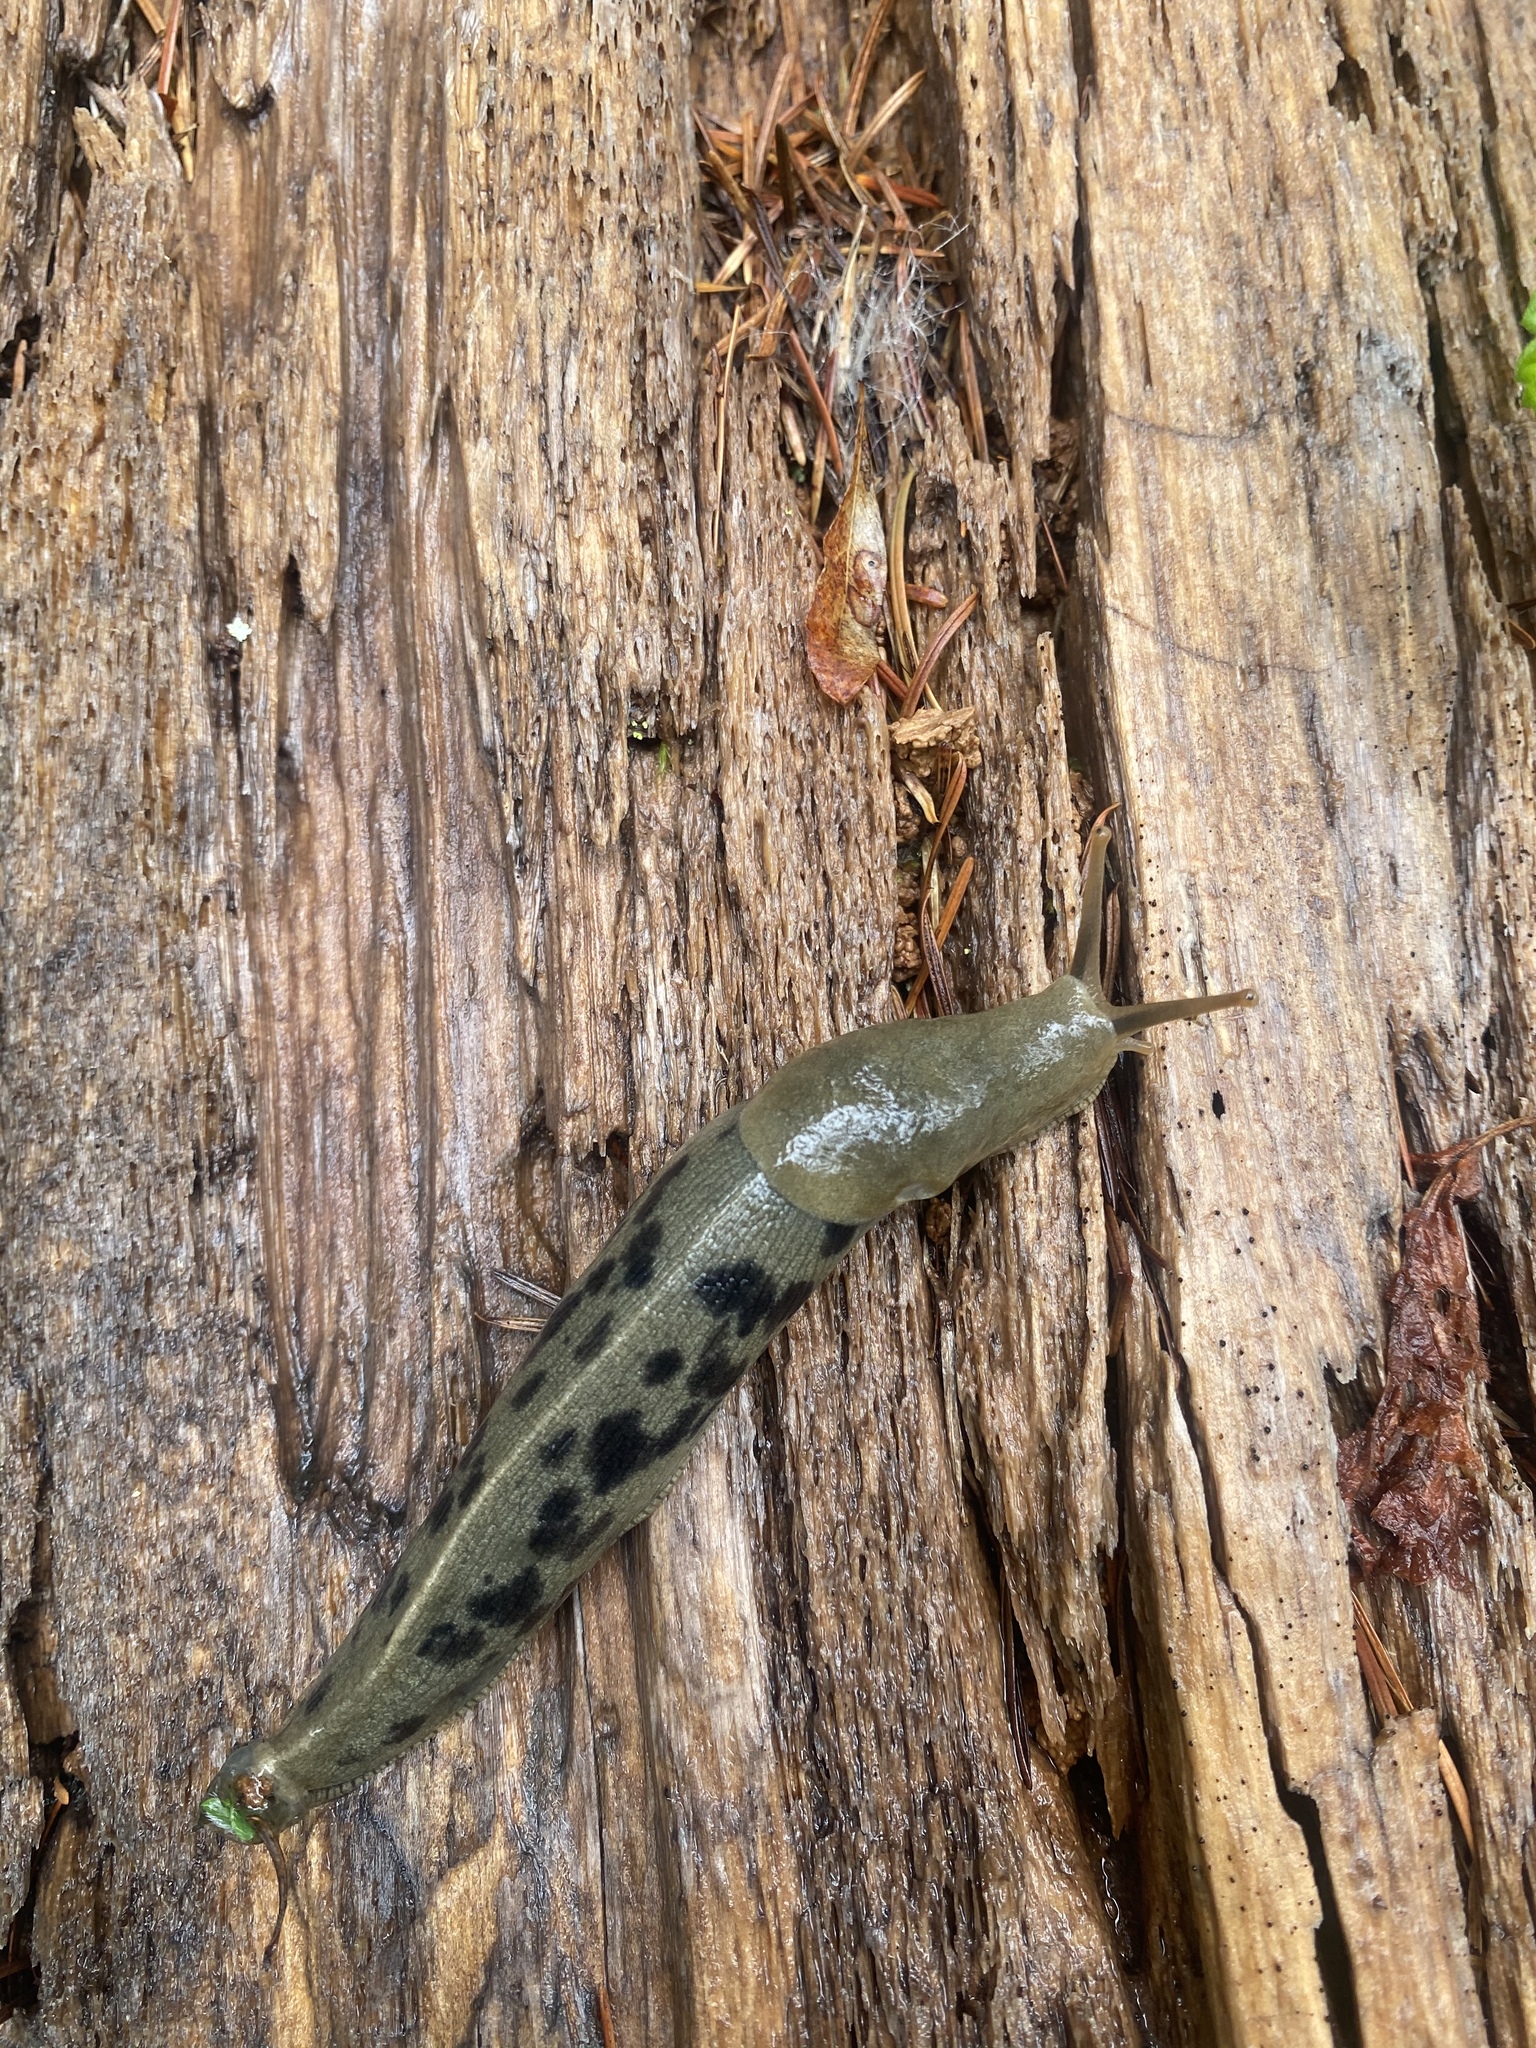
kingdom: Animalia
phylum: Mollusca
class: Gastropoda
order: Stylommatophora
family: Ariolimacidae
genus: Ariolimax
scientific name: Ariolimax columbianus
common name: Pacific banana slug
